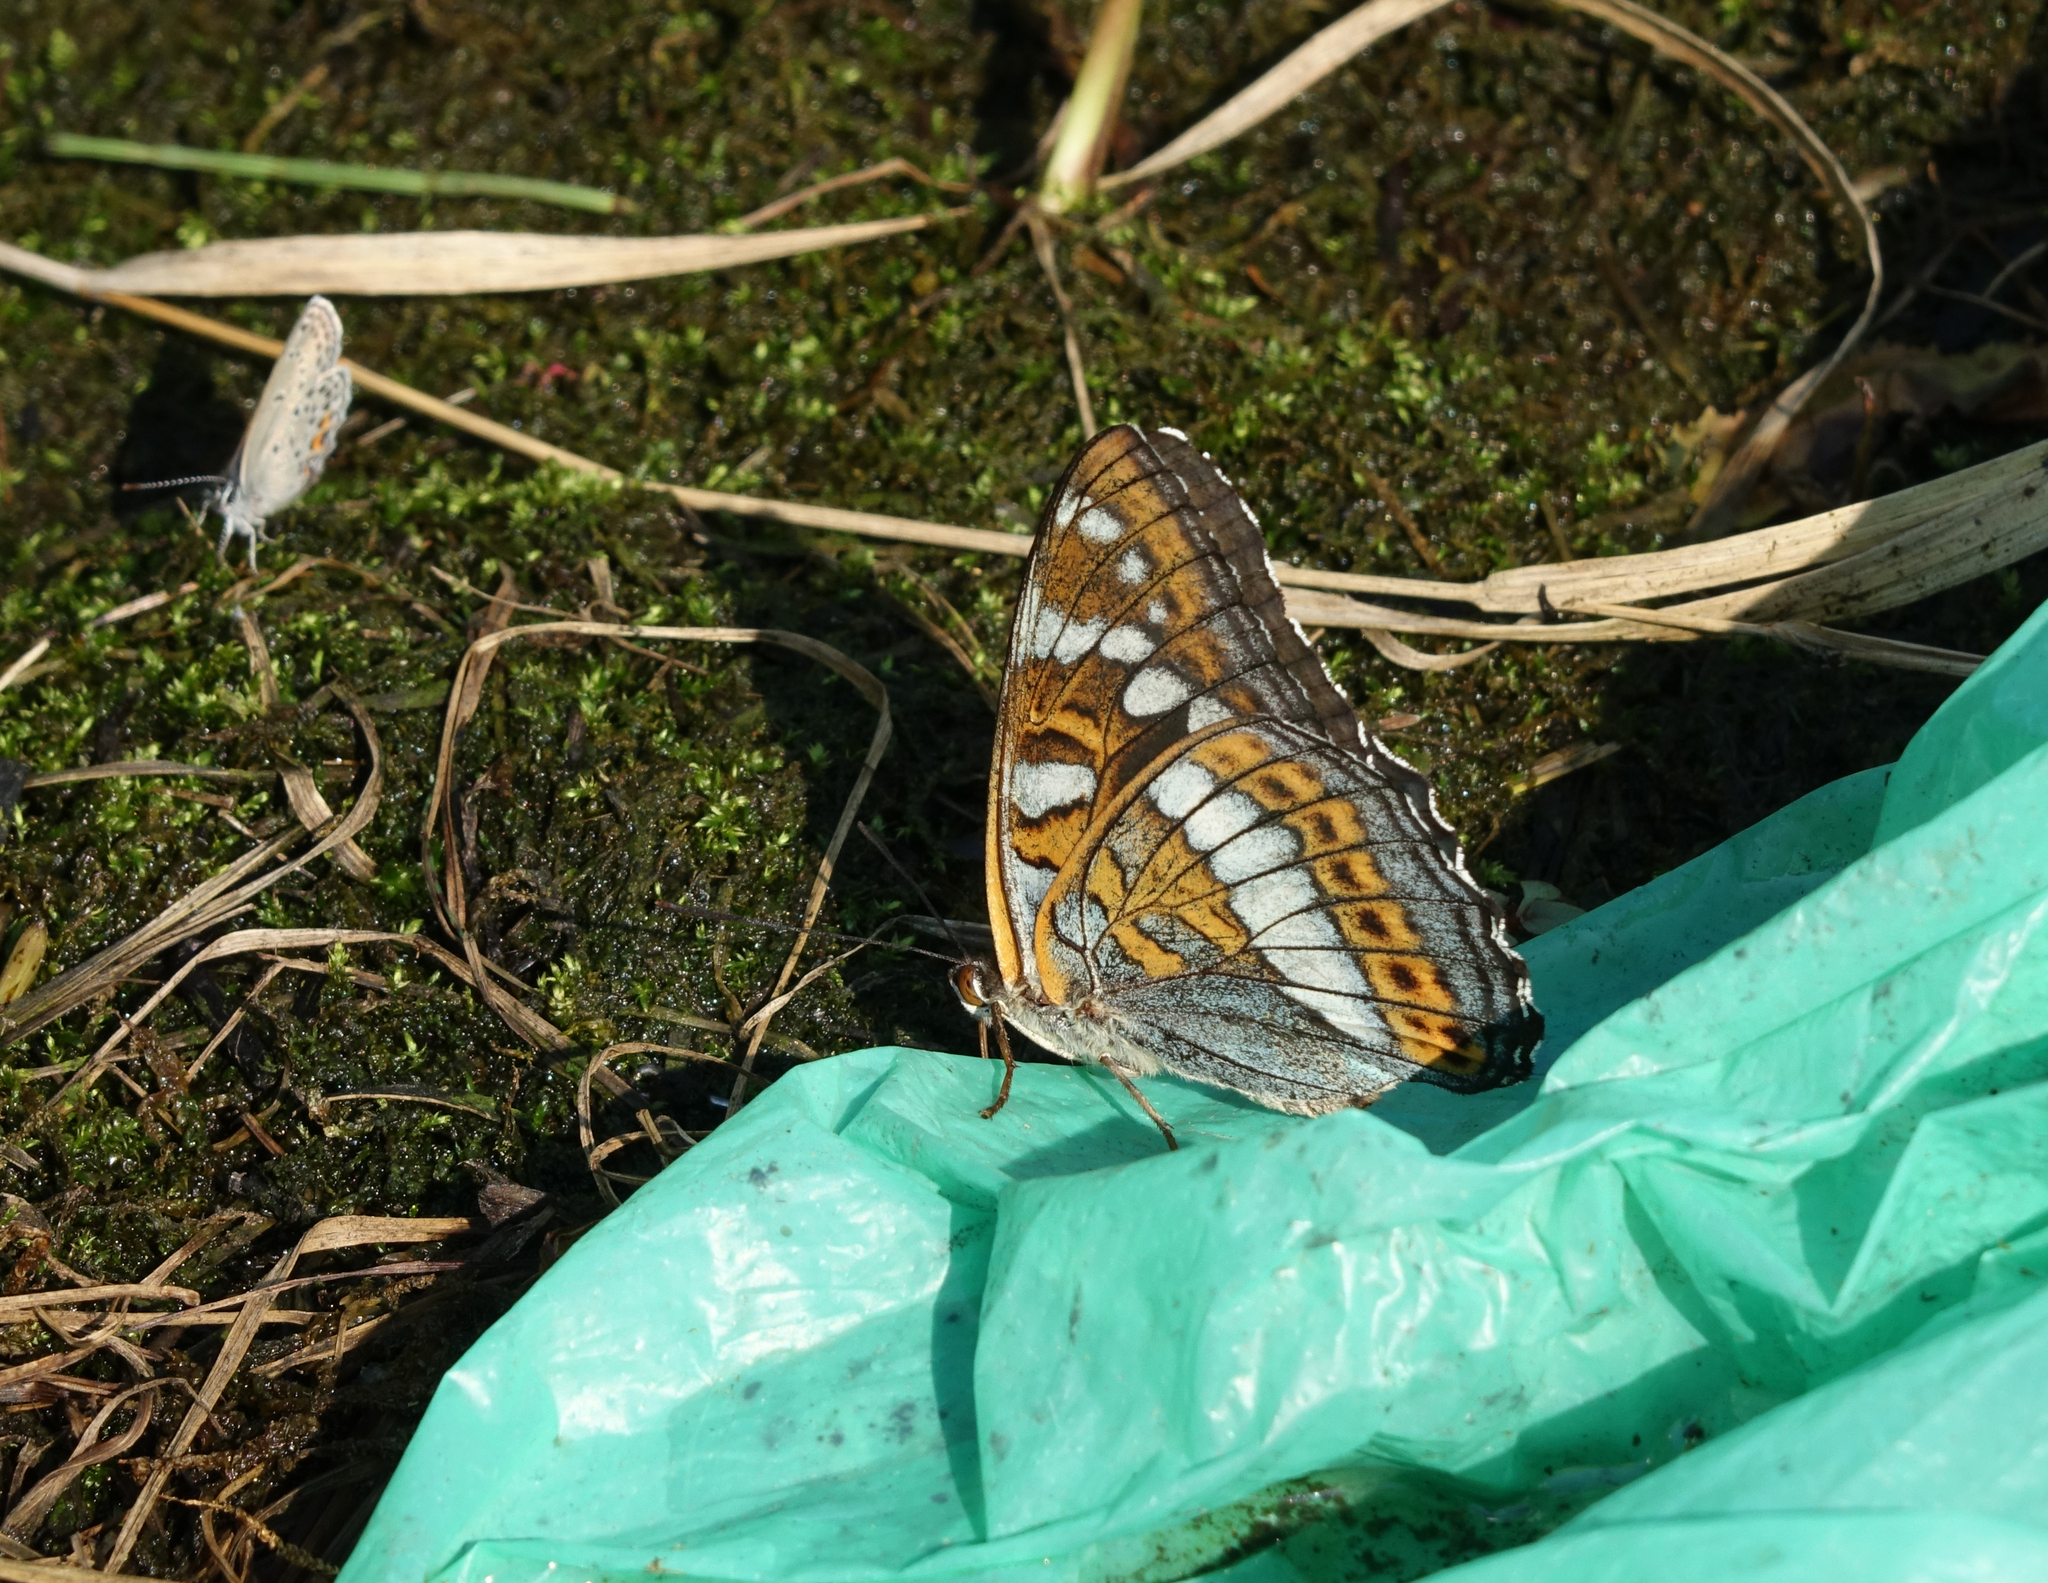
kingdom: Animalia
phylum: Arthropoda
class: Insecta
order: Lepidoptera
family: Nymphalidae
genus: Limenitis
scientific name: Limenitis populi
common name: Poplar admiral
